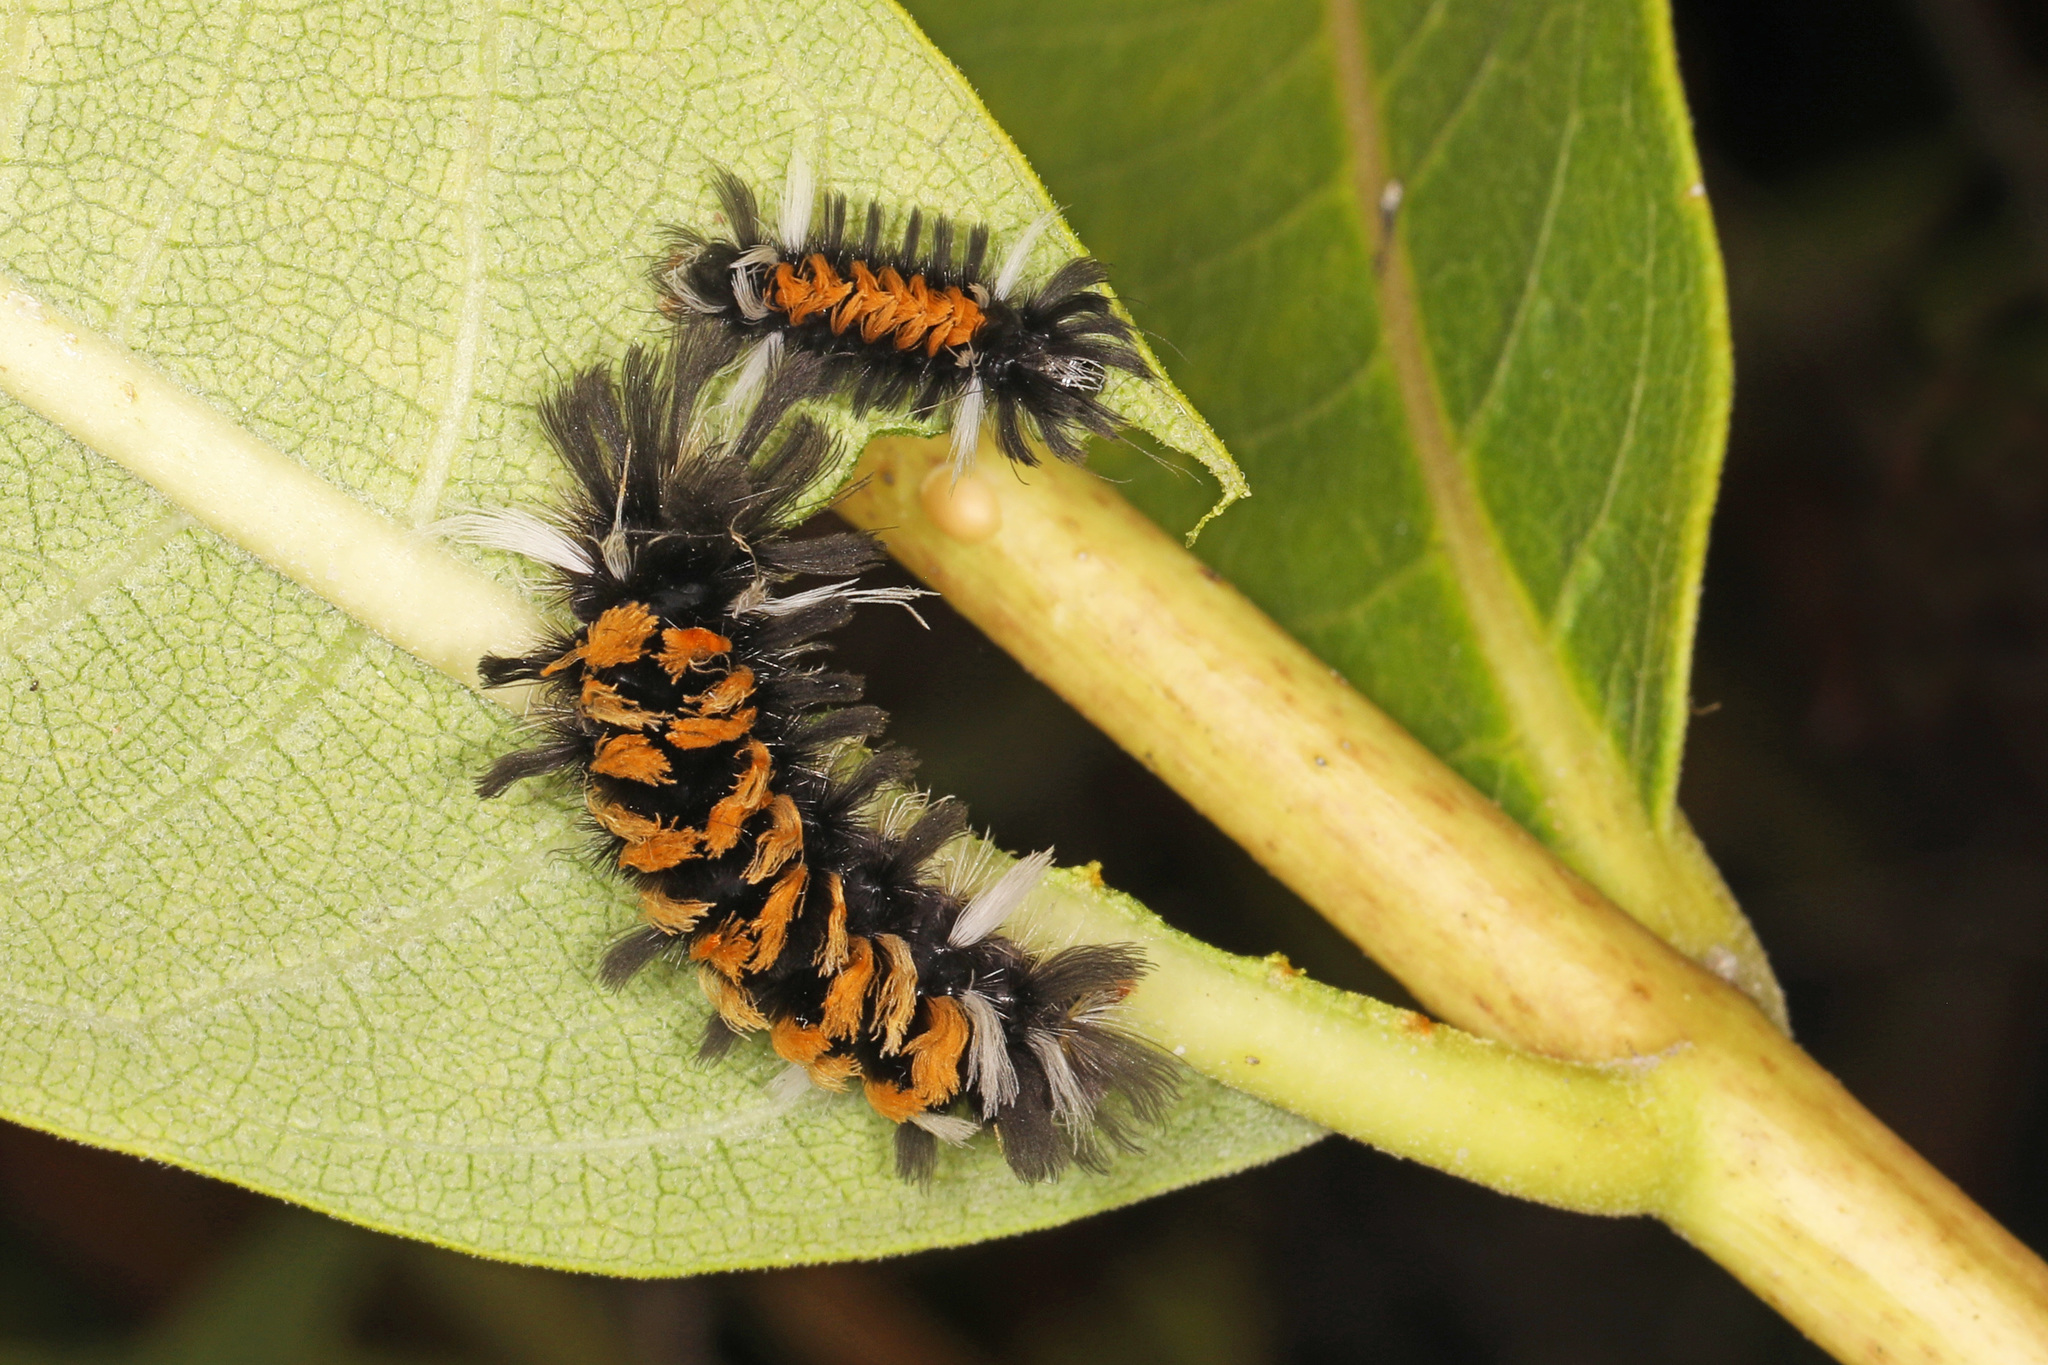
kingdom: Animalia
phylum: Arthropoda
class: Insecta
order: Lepidoptera
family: Erebidae
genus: Euchaetes
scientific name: Euchaetes egle
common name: Milkweed tussock moth
